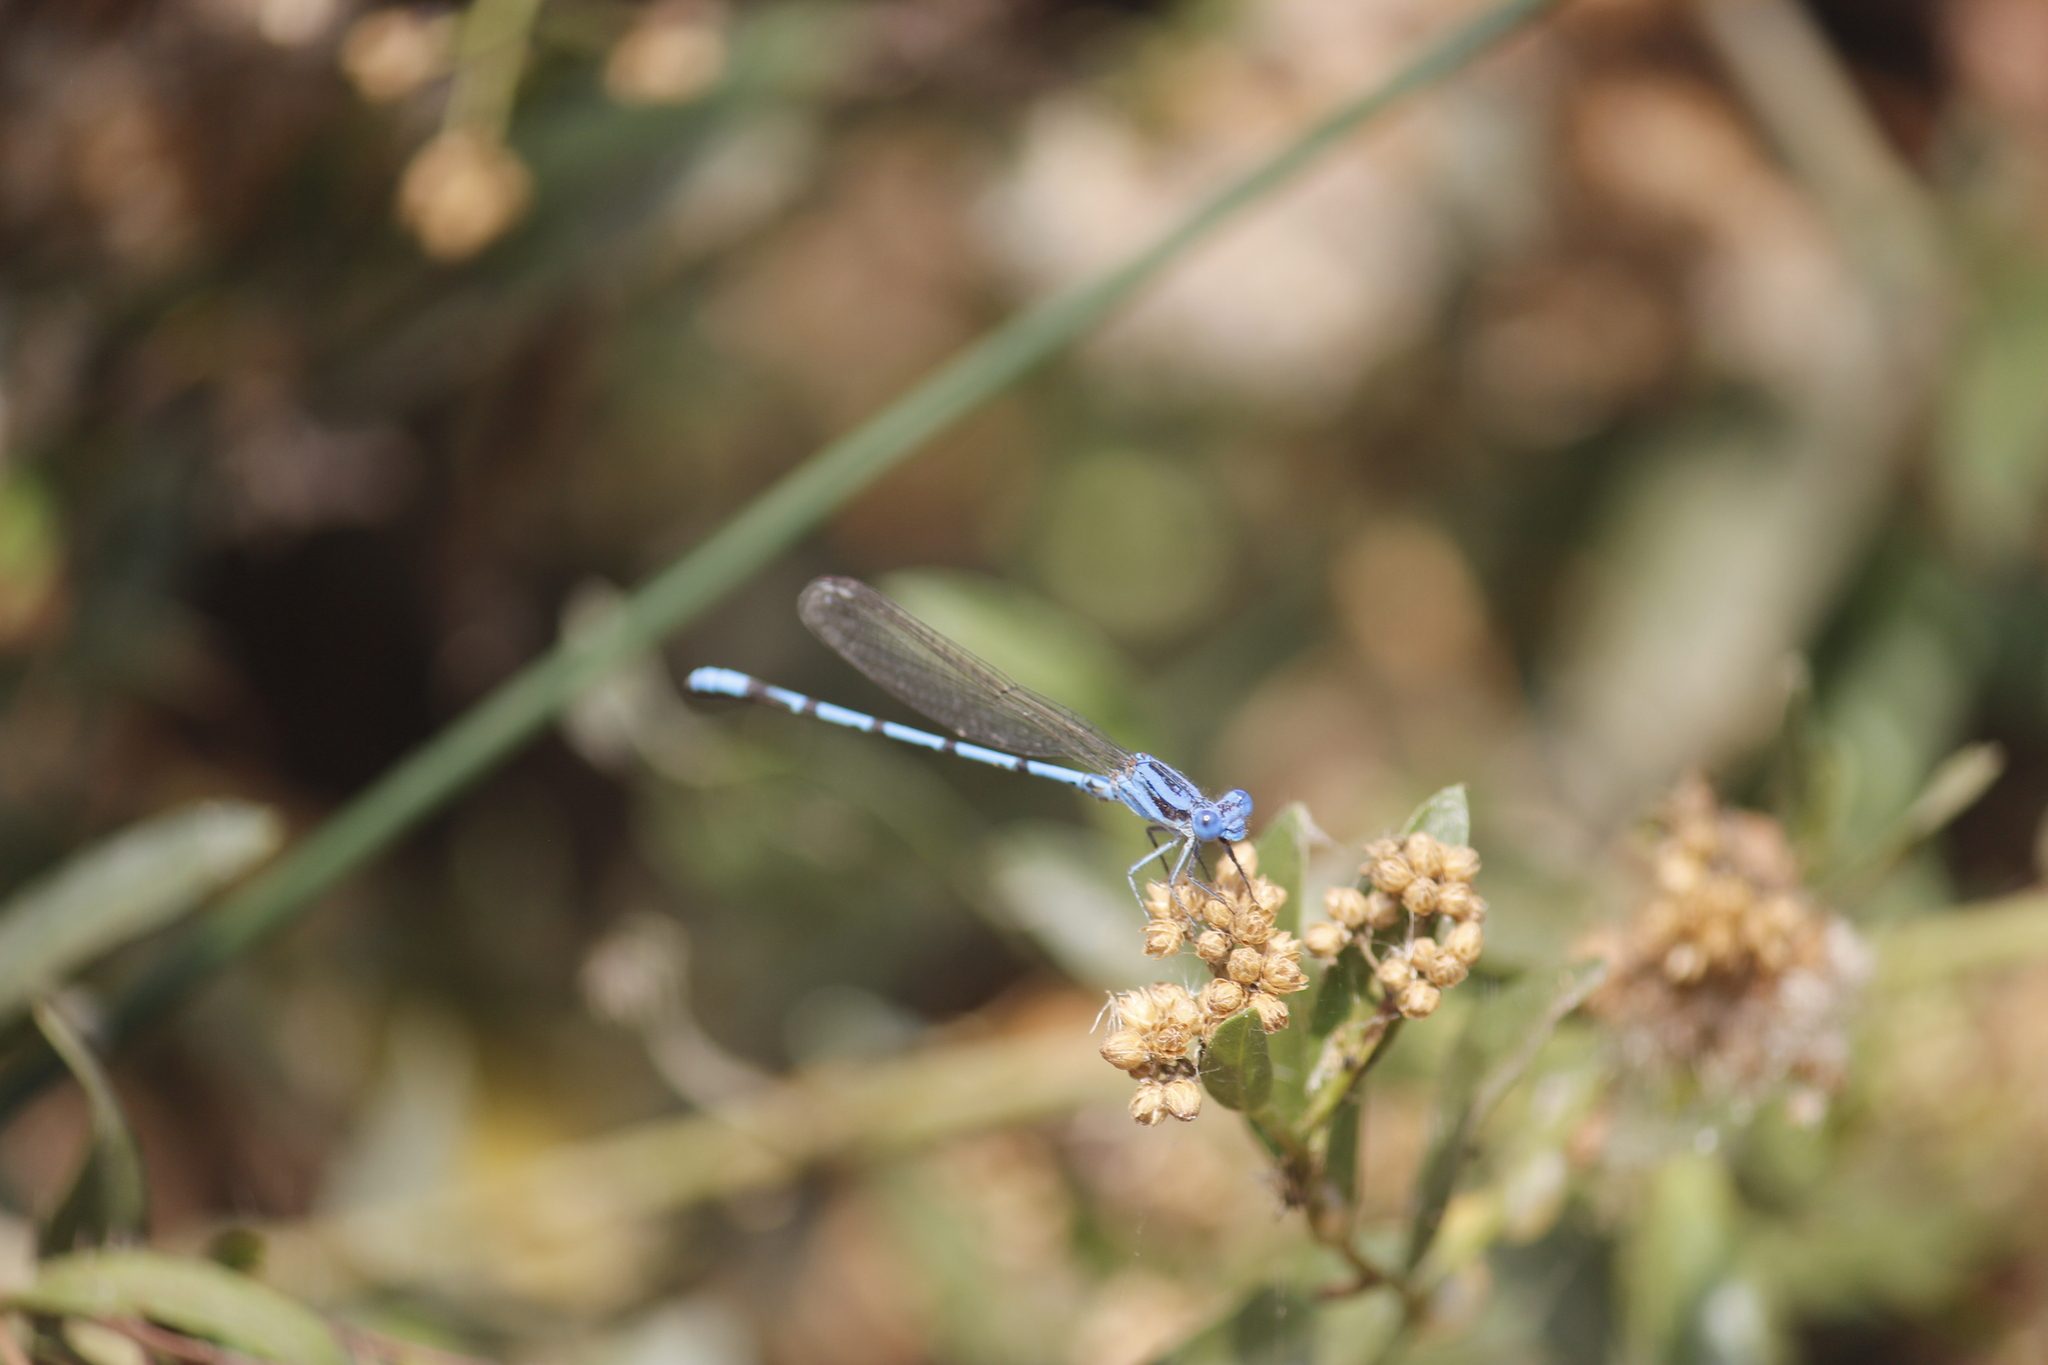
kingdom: Animalia
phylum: Arthropoda
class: Insecta
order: Odonata
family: Coenagrionidae
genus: Argia
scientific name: Argia inculta
